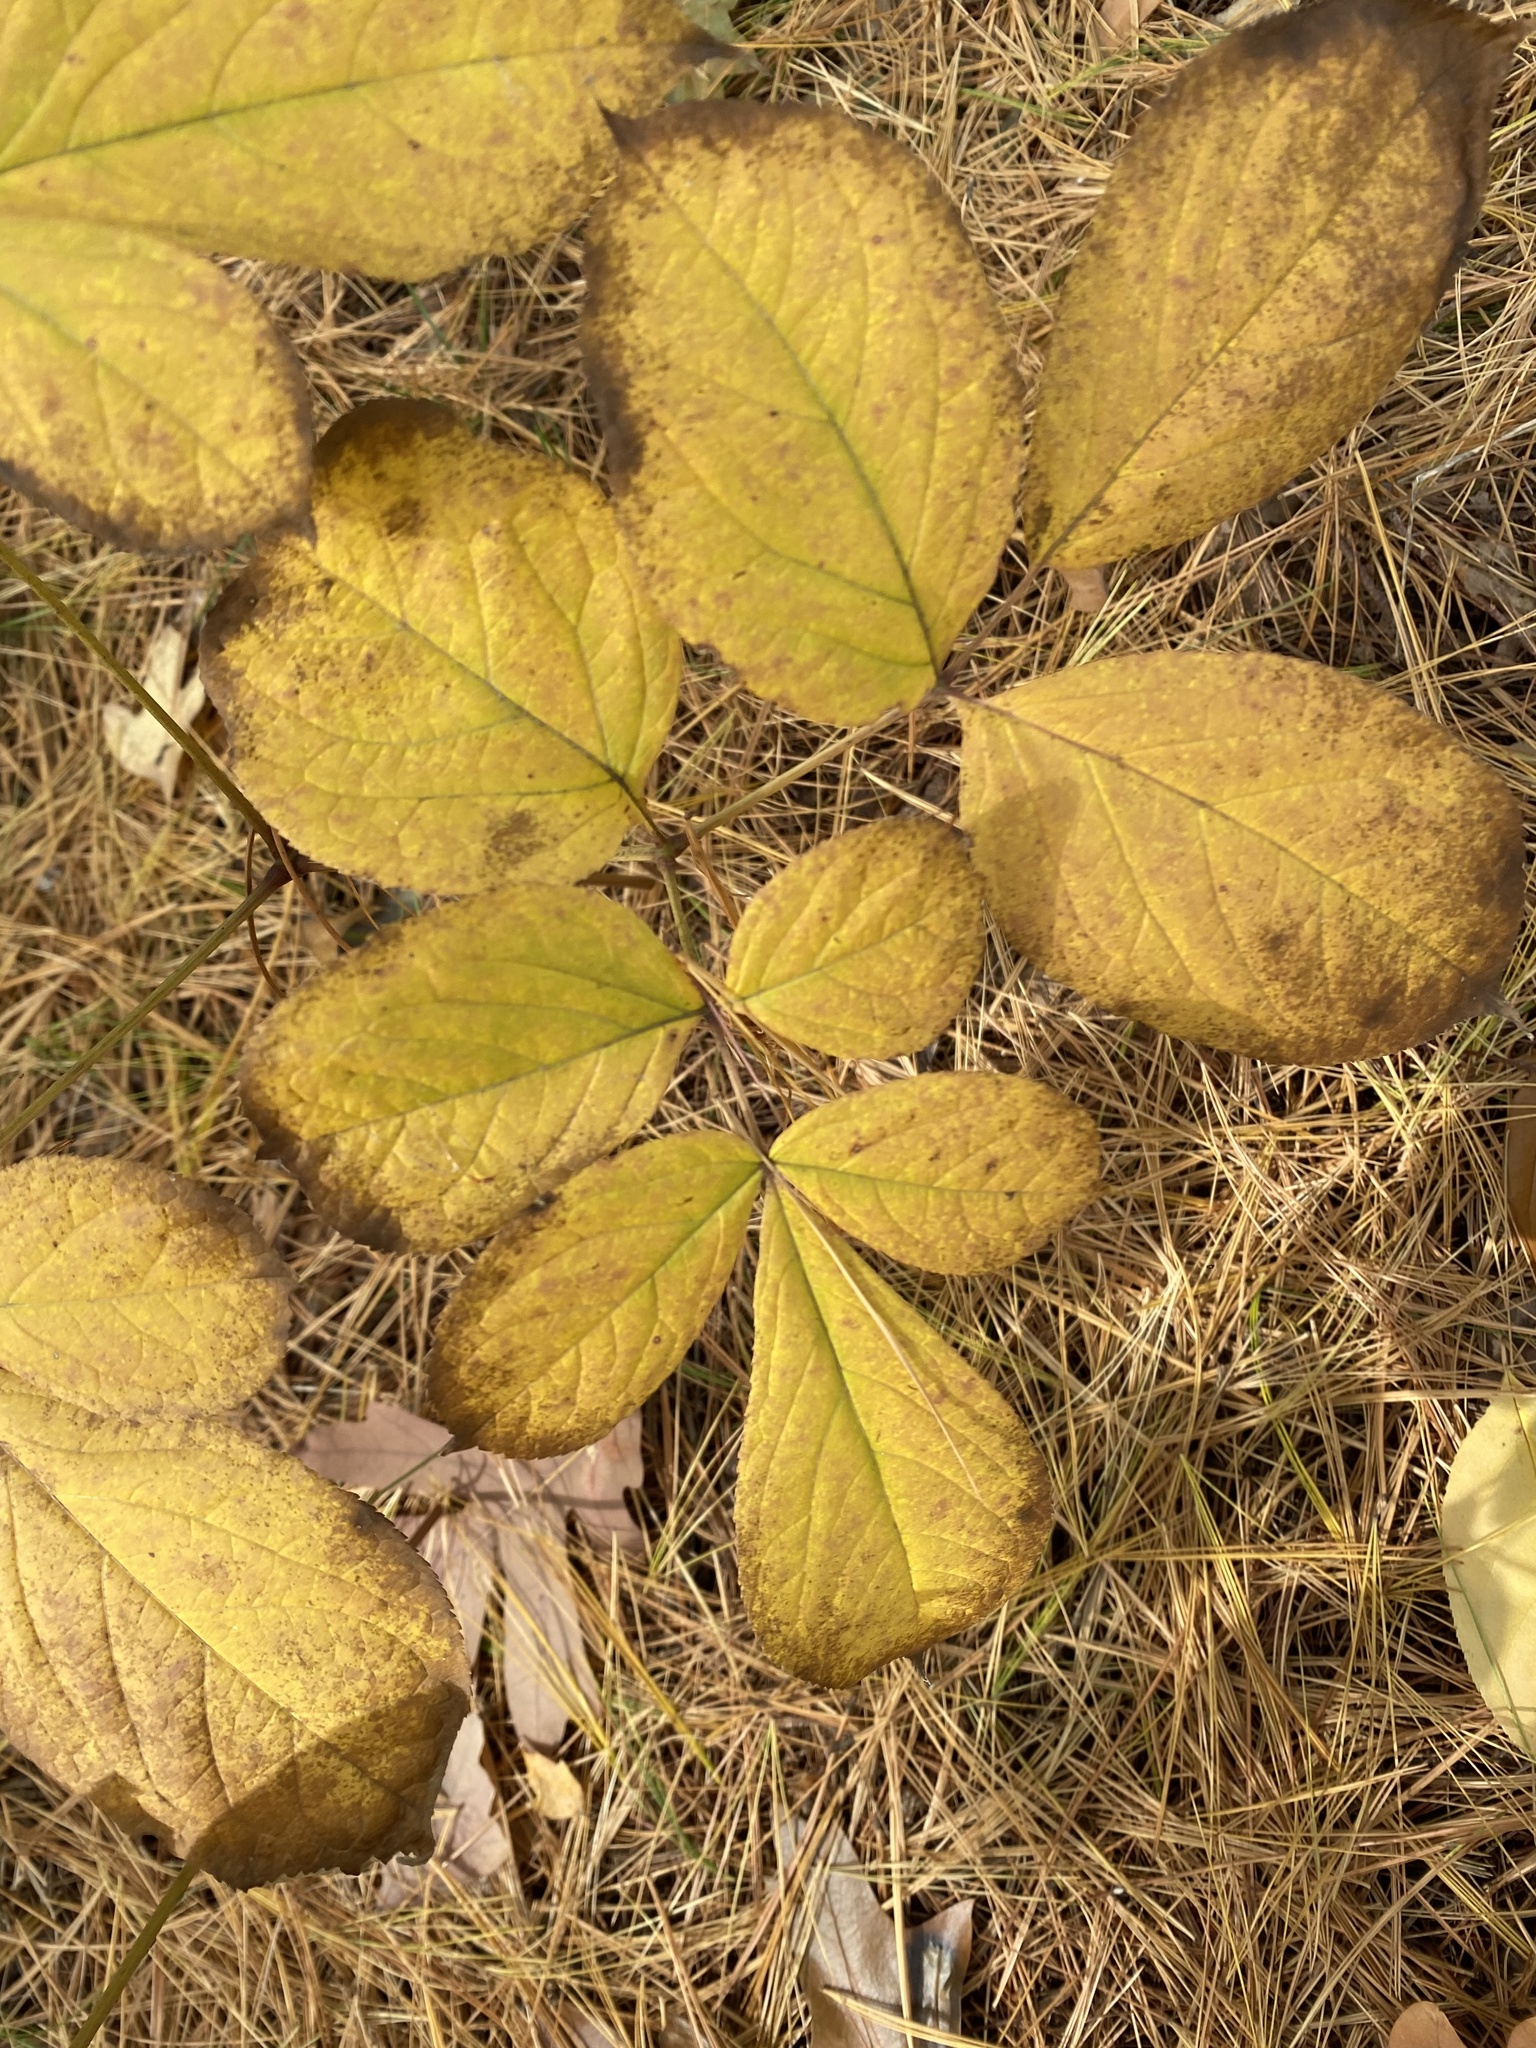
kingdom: Plantae
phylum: Tracheophyta
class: Magnoliopsida
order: Apiales
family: Araliaceae
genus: Aralia
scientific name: Aralia nudicaulis
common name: Wild sarsaparilla
